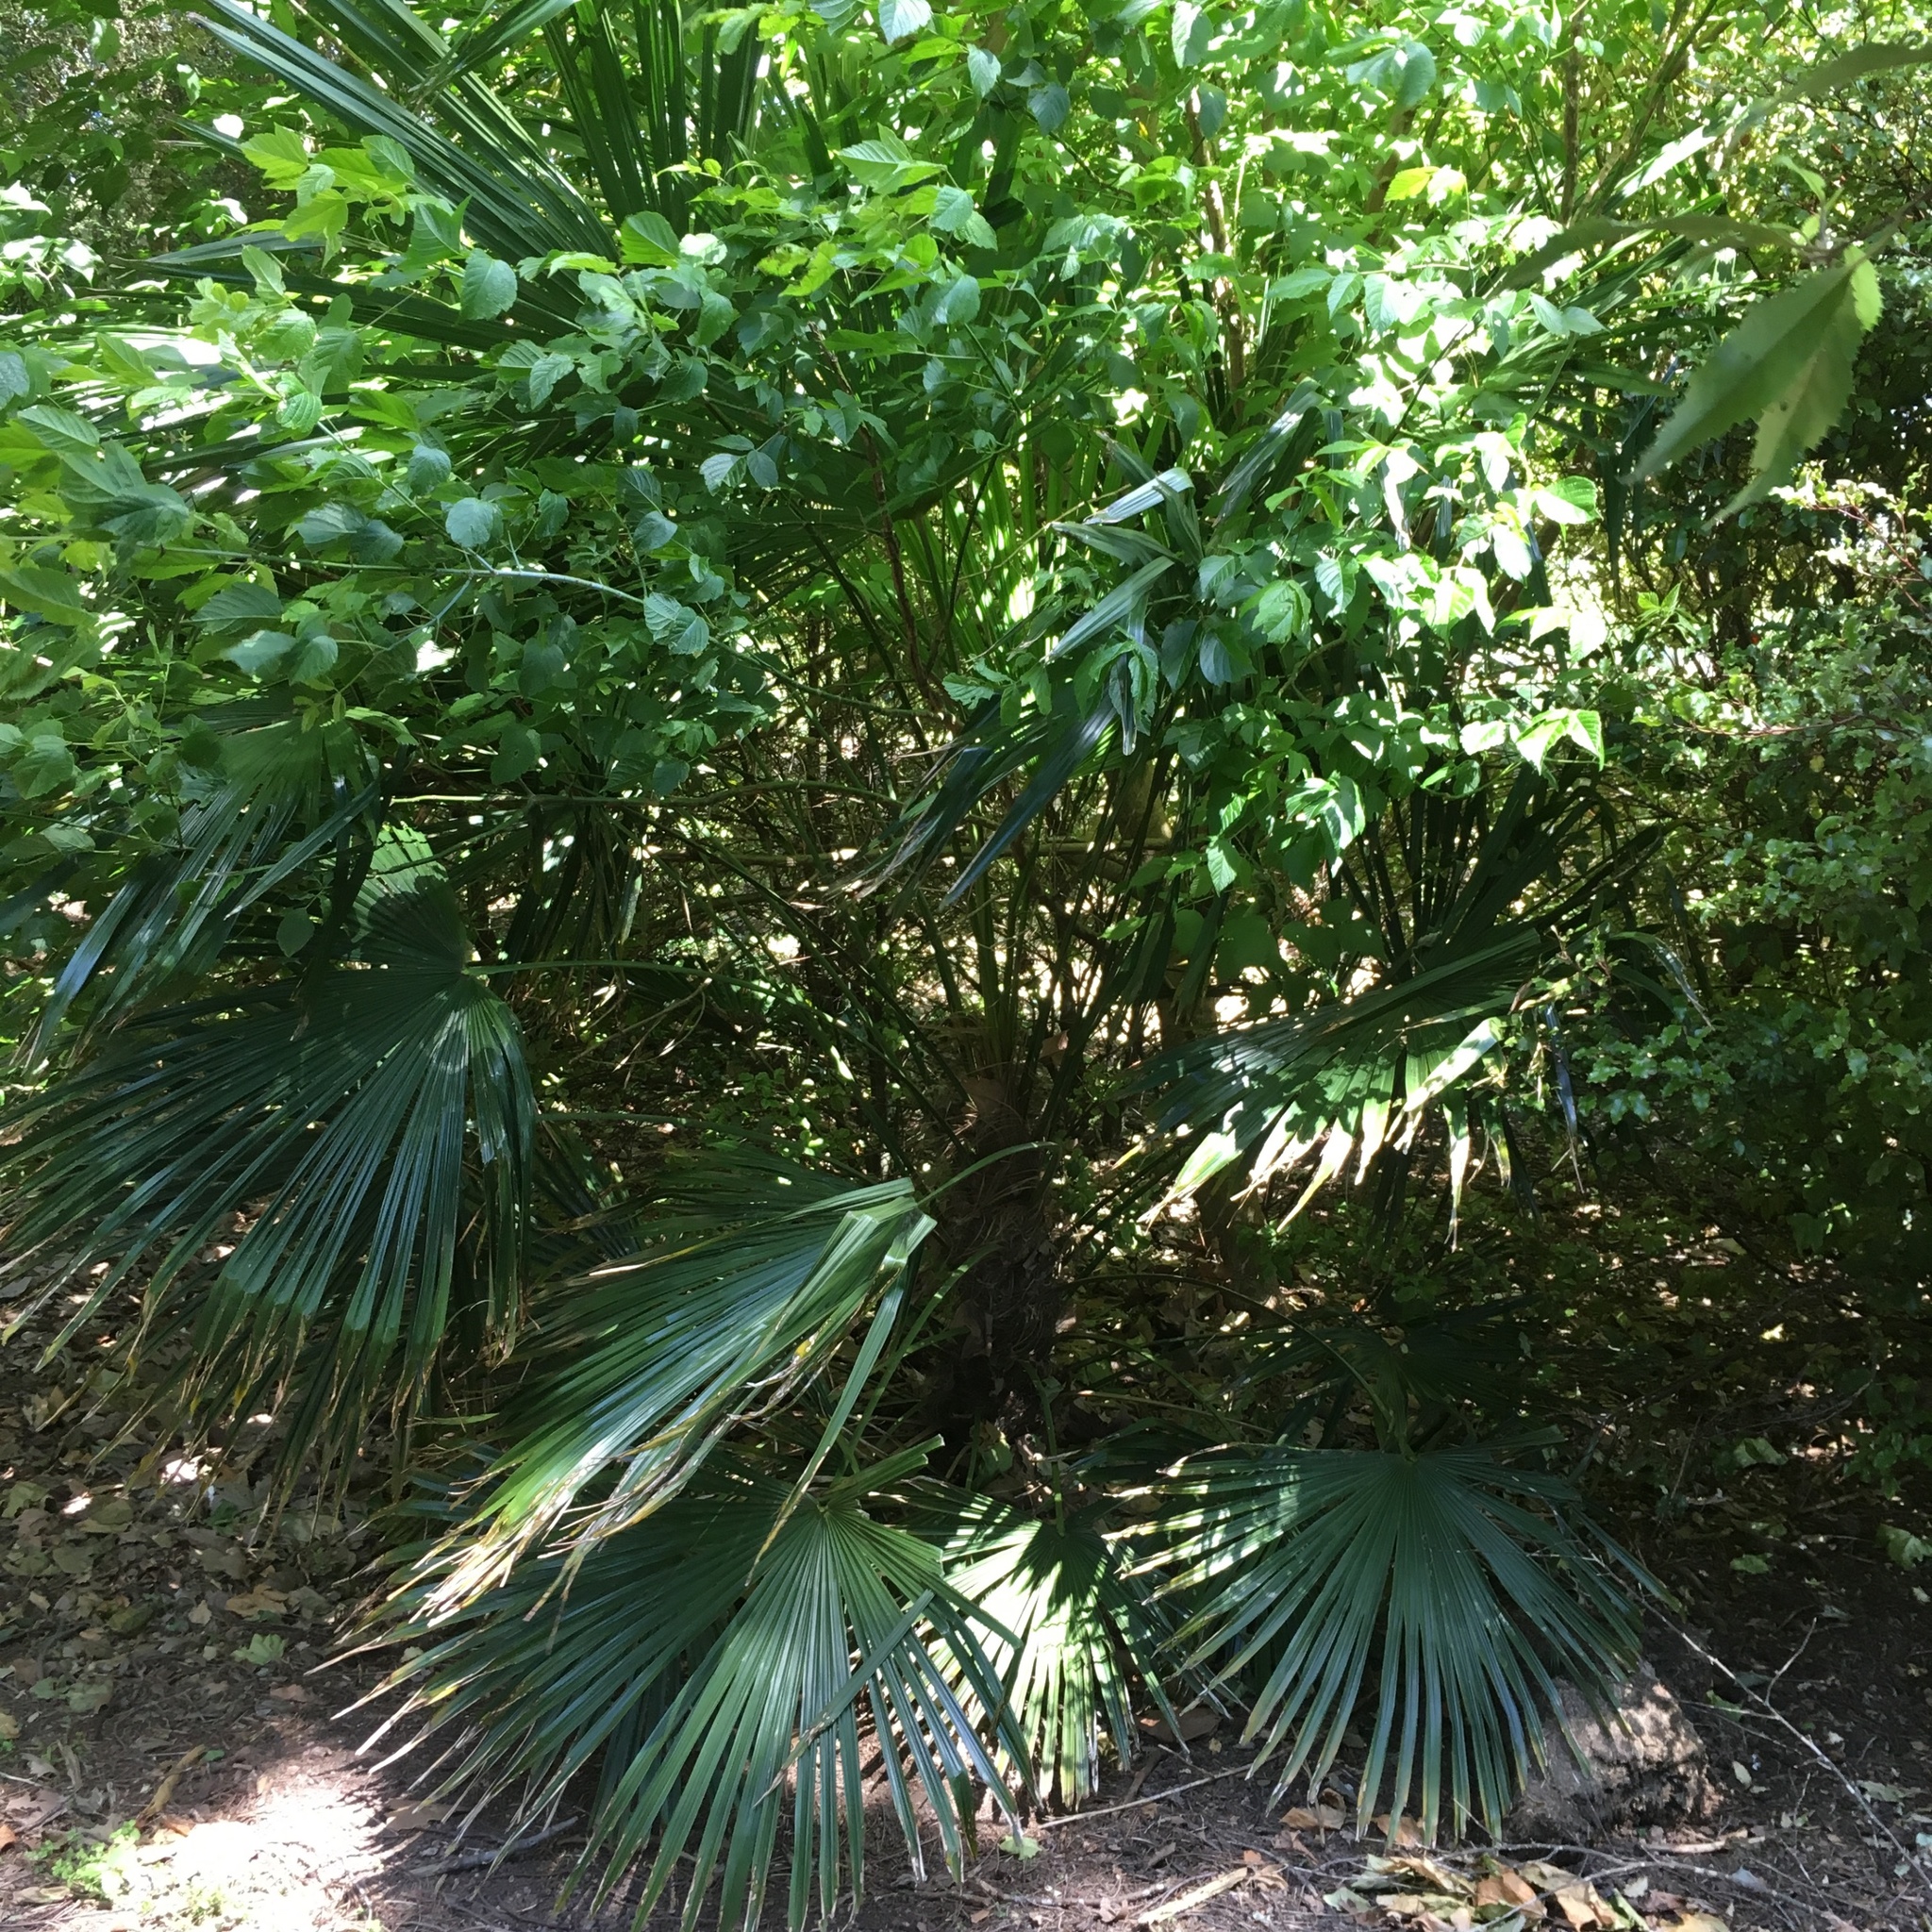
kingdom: Plantae
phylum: Tracheophyta
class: Liliopsida
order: Arecales
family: Arecaceae
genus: Trachycarpus
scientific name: Trachycarpus fortunei
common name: Chusan palm
